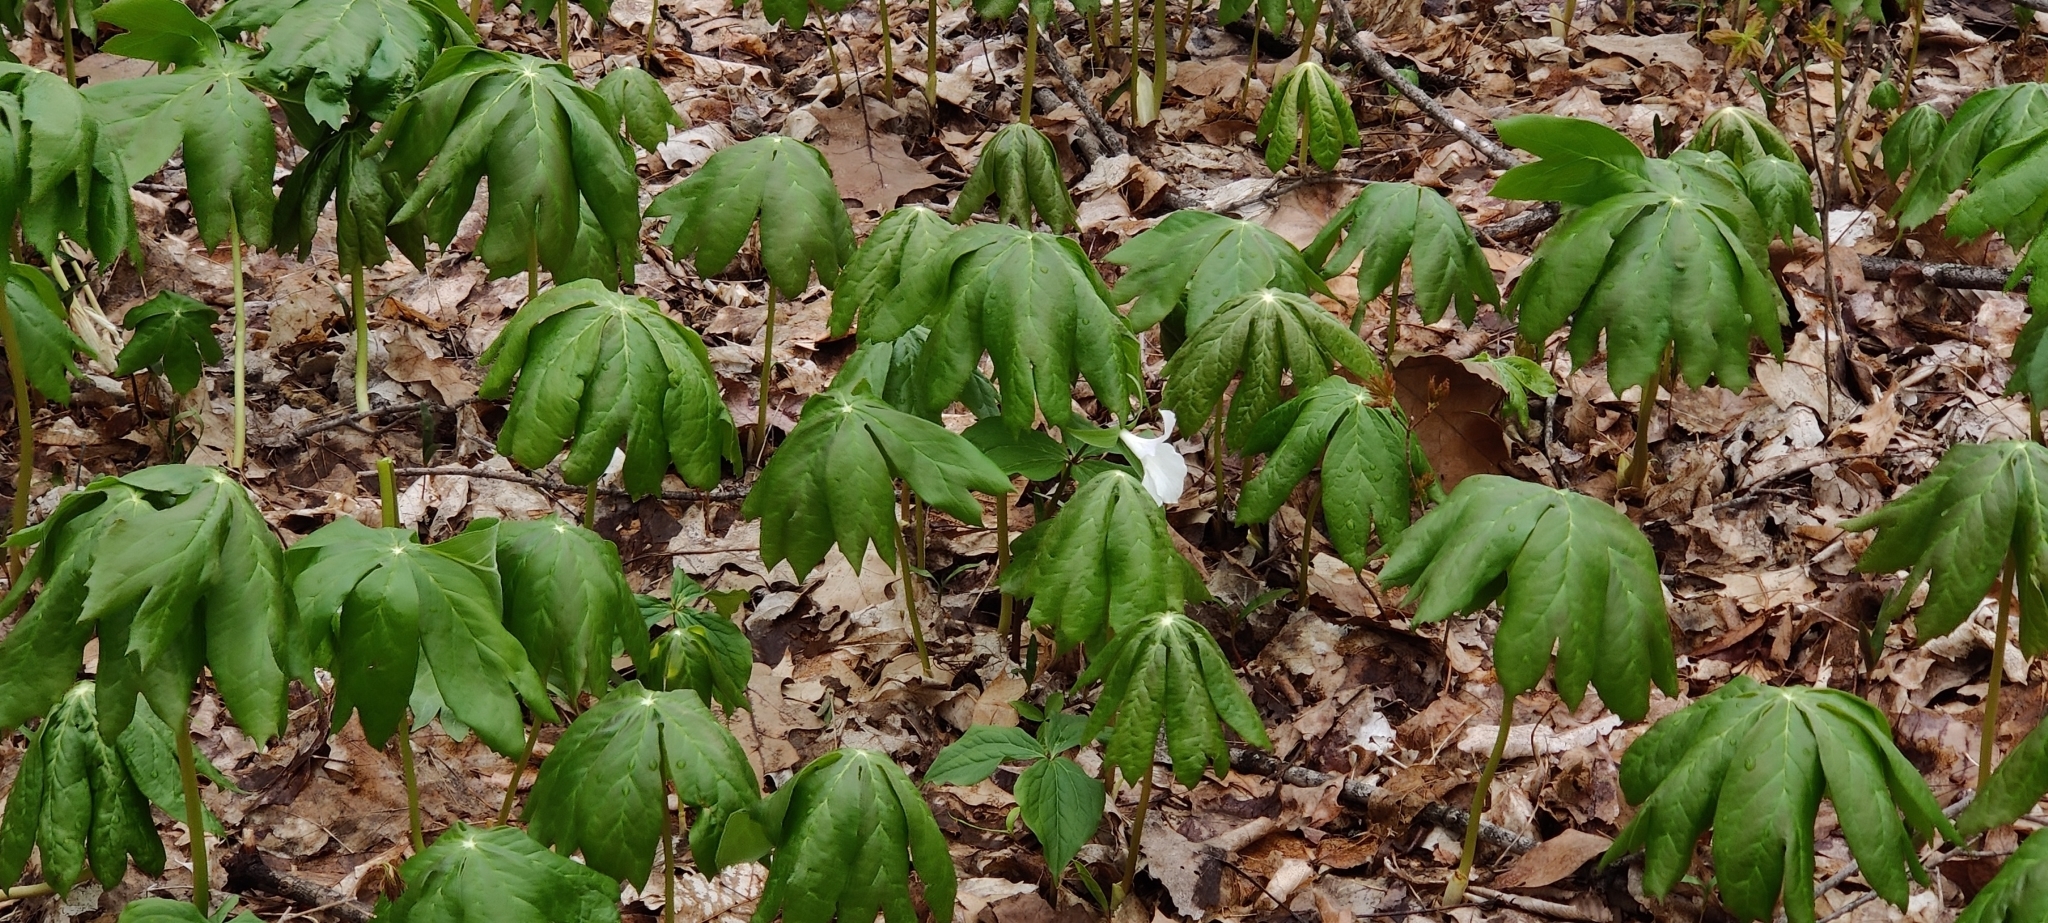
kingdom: Plantae
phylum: Tracheophyta
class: Magnoliopsida
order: Ranunculales
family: Berberidaceae
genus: Podophyllum
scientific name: Podophyllum peltatum
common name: Wild mandrake
